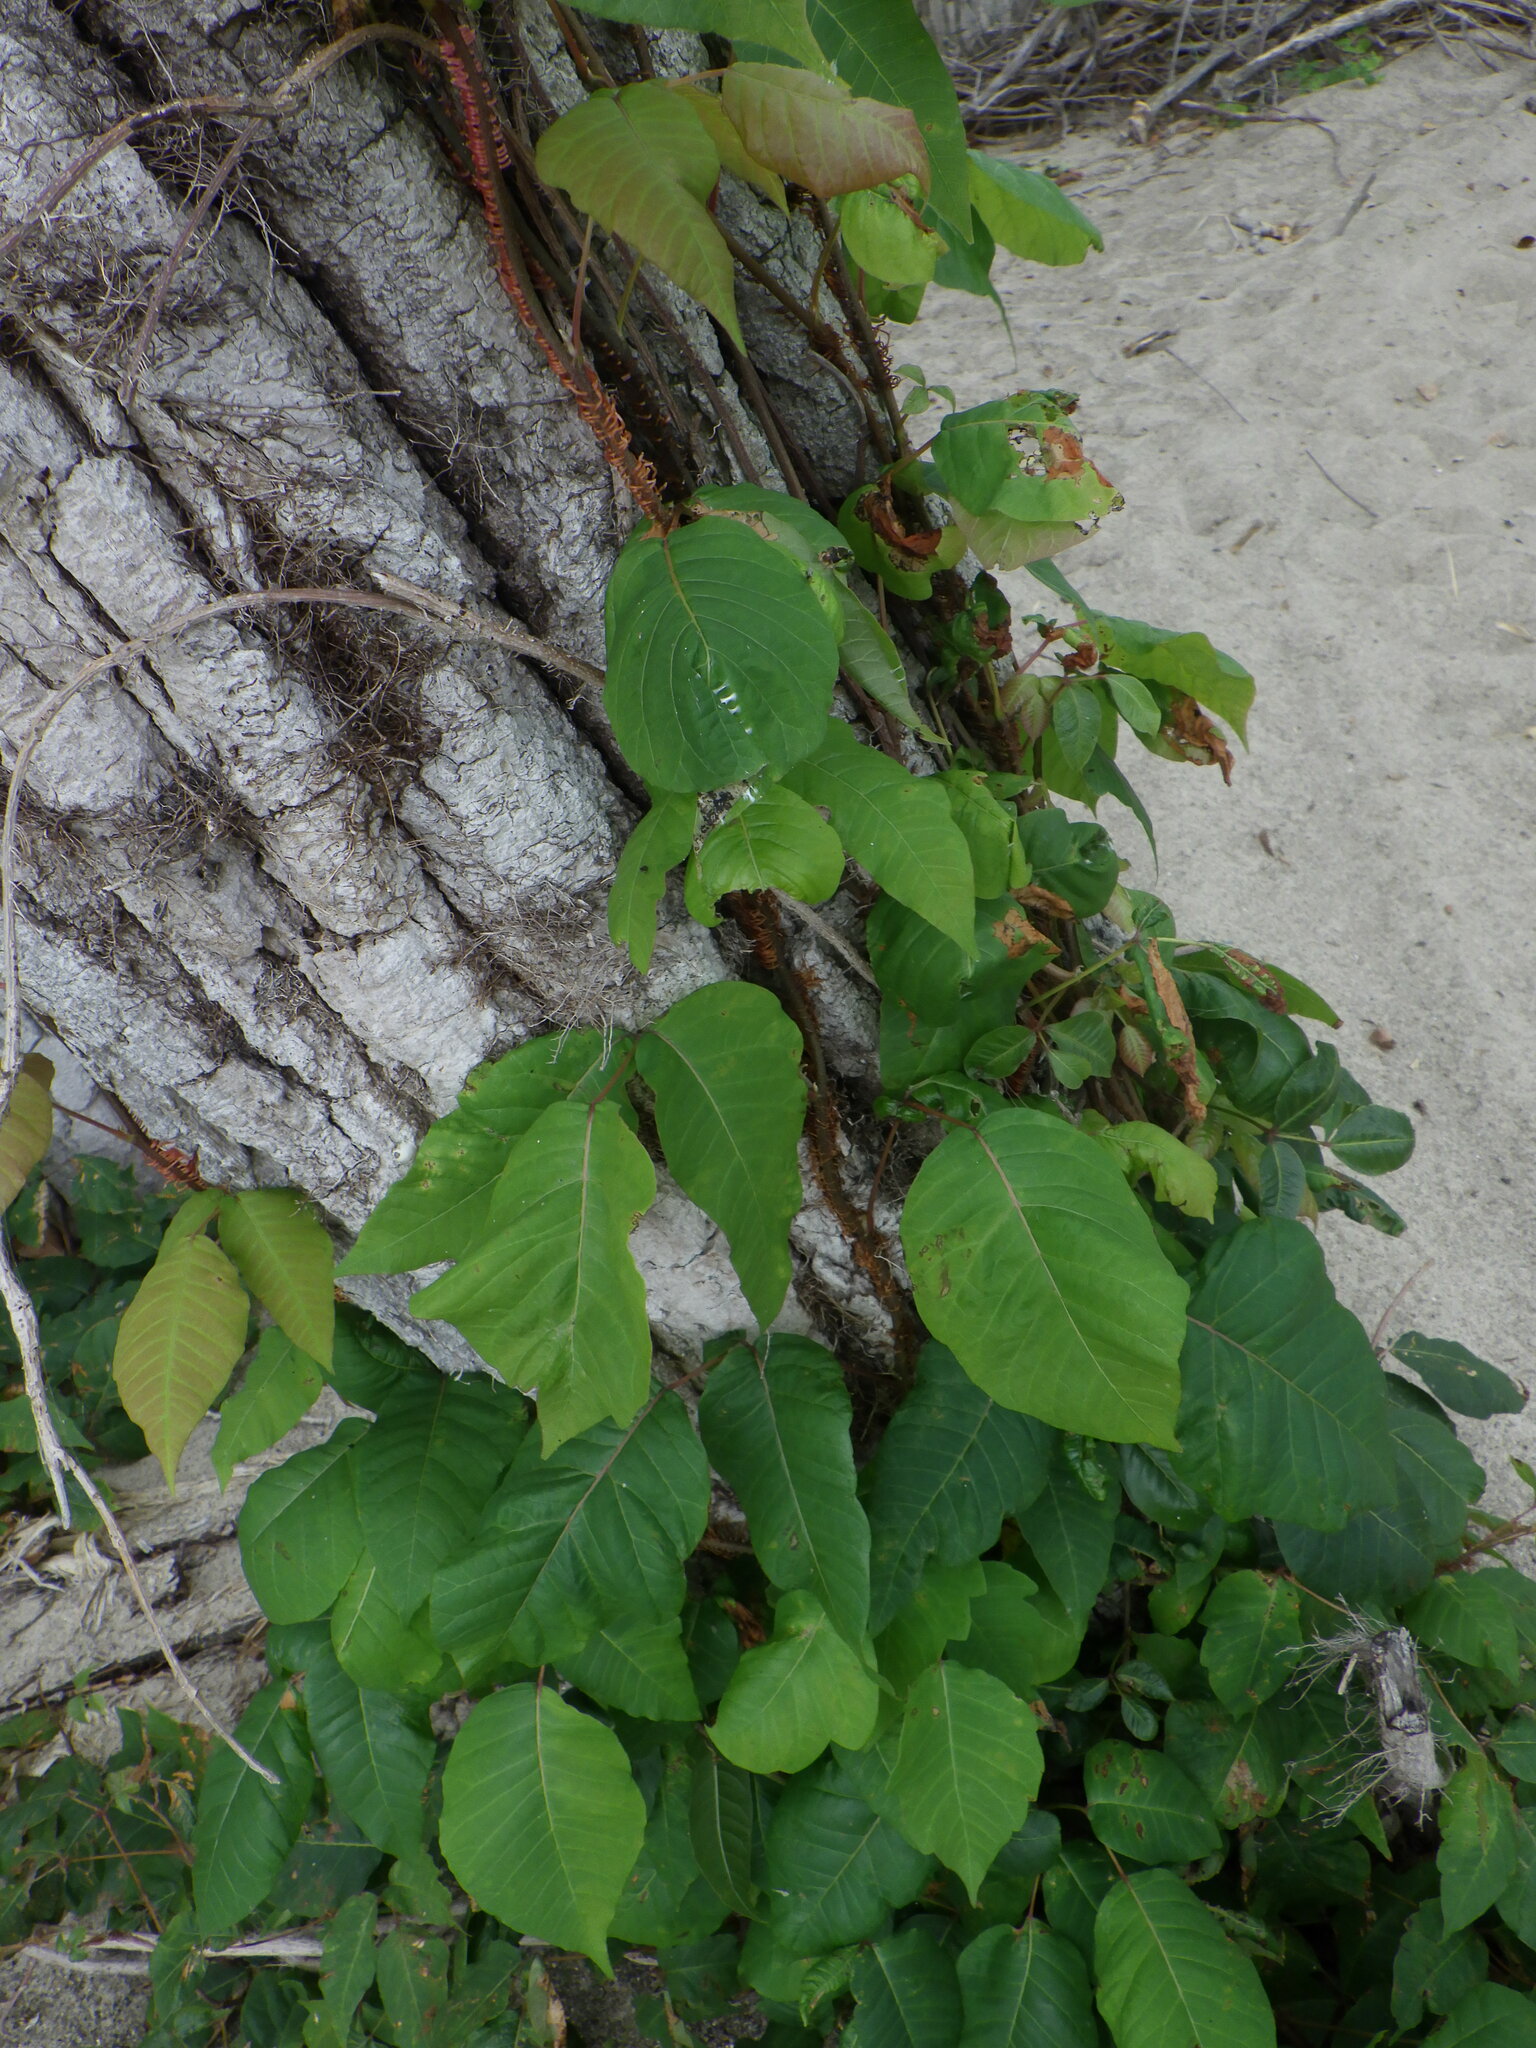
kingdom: Plantae
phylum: Tracheophyta
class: Magnoliopsida
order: Sapindales
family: Anacardiaceae
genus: Toxicodendron
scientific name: Toxicodendron radicans
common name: Poison ivy
